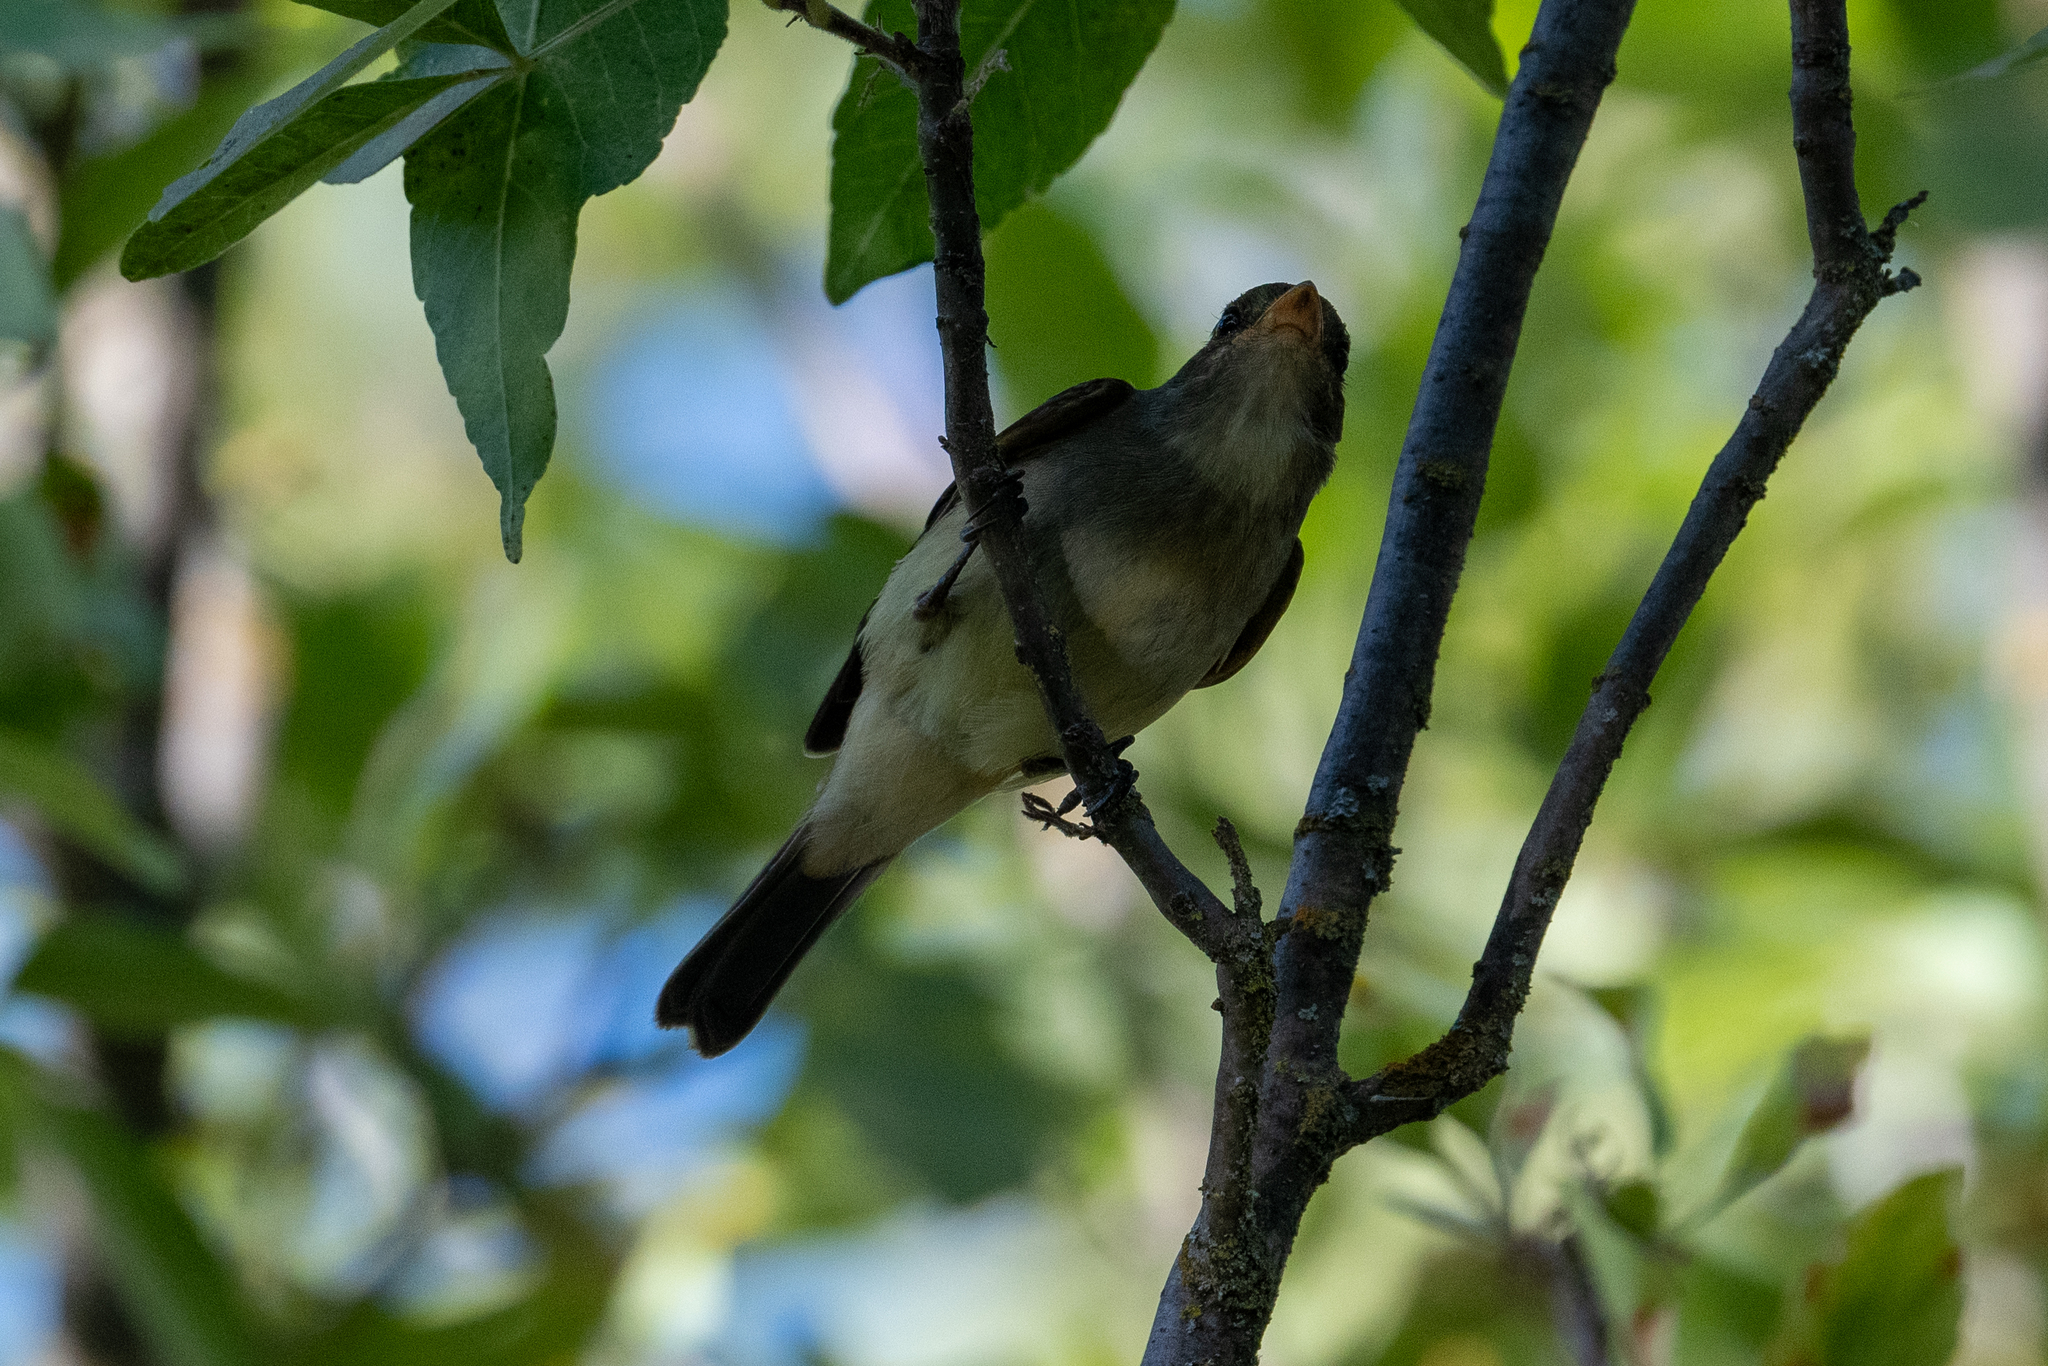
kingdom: Animalia
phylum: Chordata
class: Aves
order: Passeriformes
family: Tyrannidae
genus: Empidonax
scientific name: Empidonax traillii
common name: Willow flycatcher
